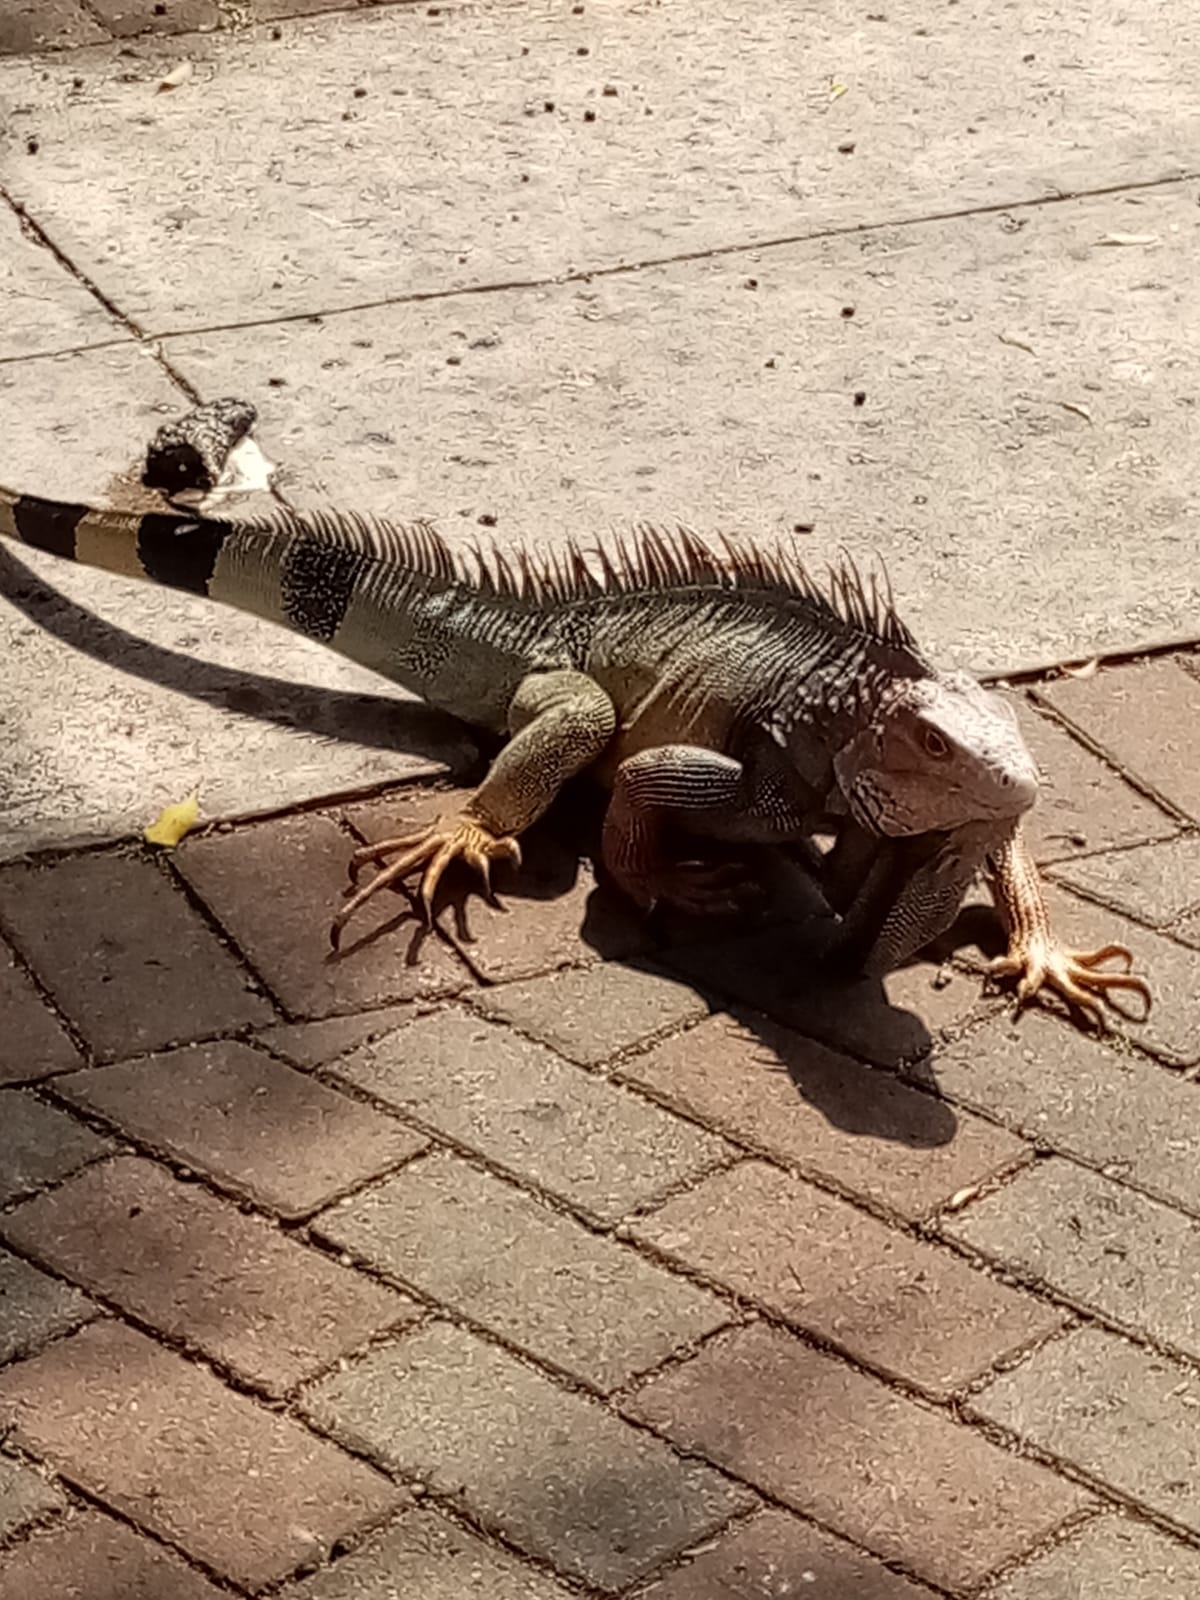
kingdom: Animalia
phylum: Chordata
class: Squamata
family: Iguanidae
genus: Iguana
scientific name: Iguana iguana
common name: Green iguana
